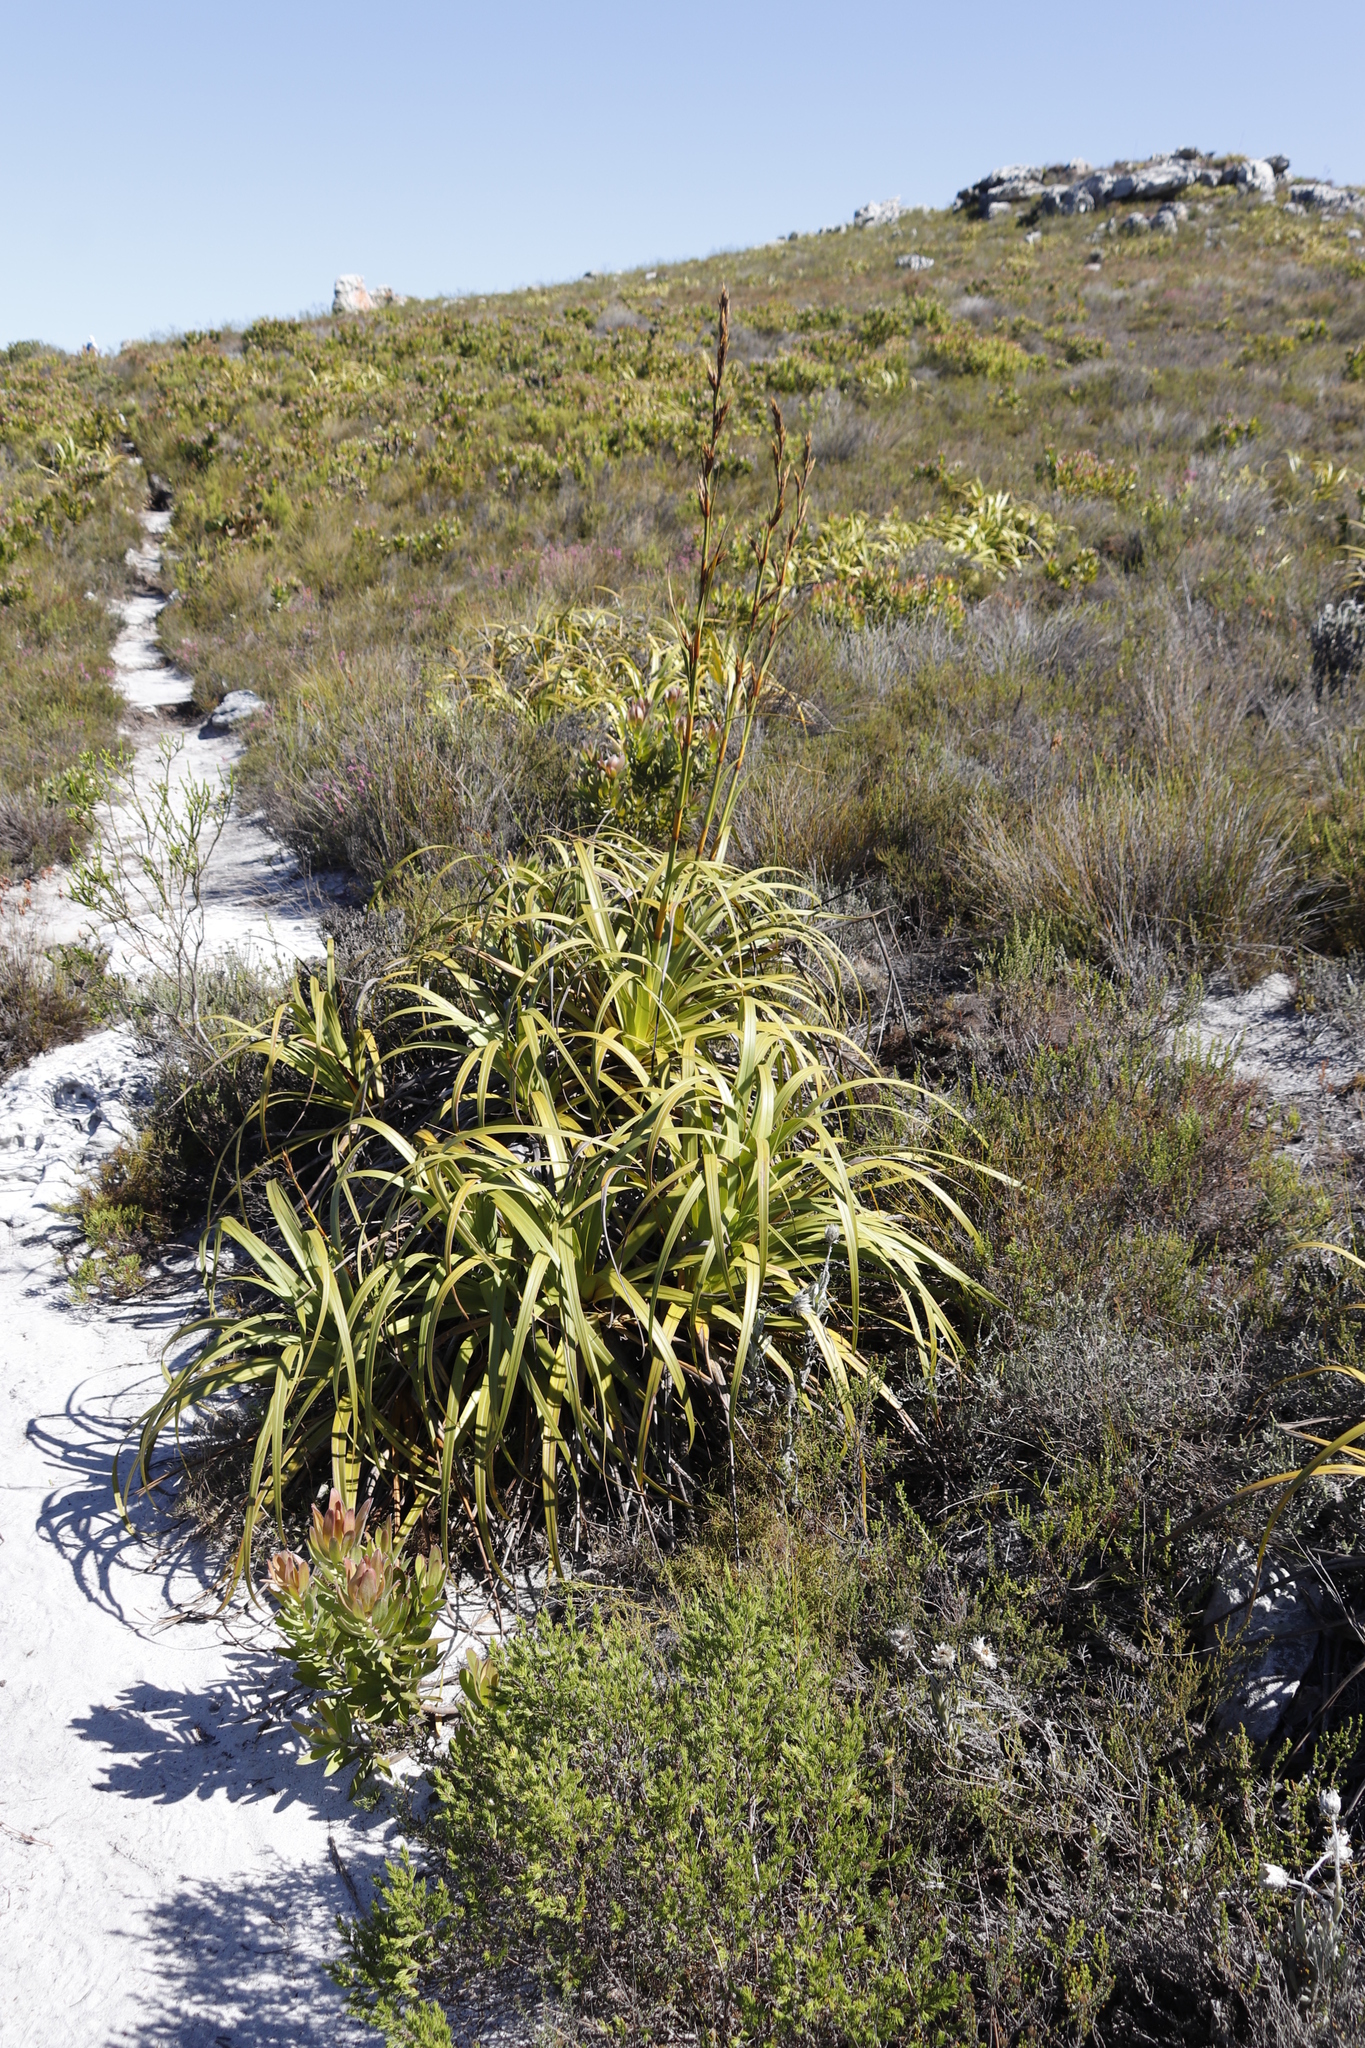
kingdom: Plantae
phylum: Tracheophyta
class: Liliopsida
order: Poales
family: Cyperaceae
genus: Tetraria
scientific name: Tetraria thermalis
